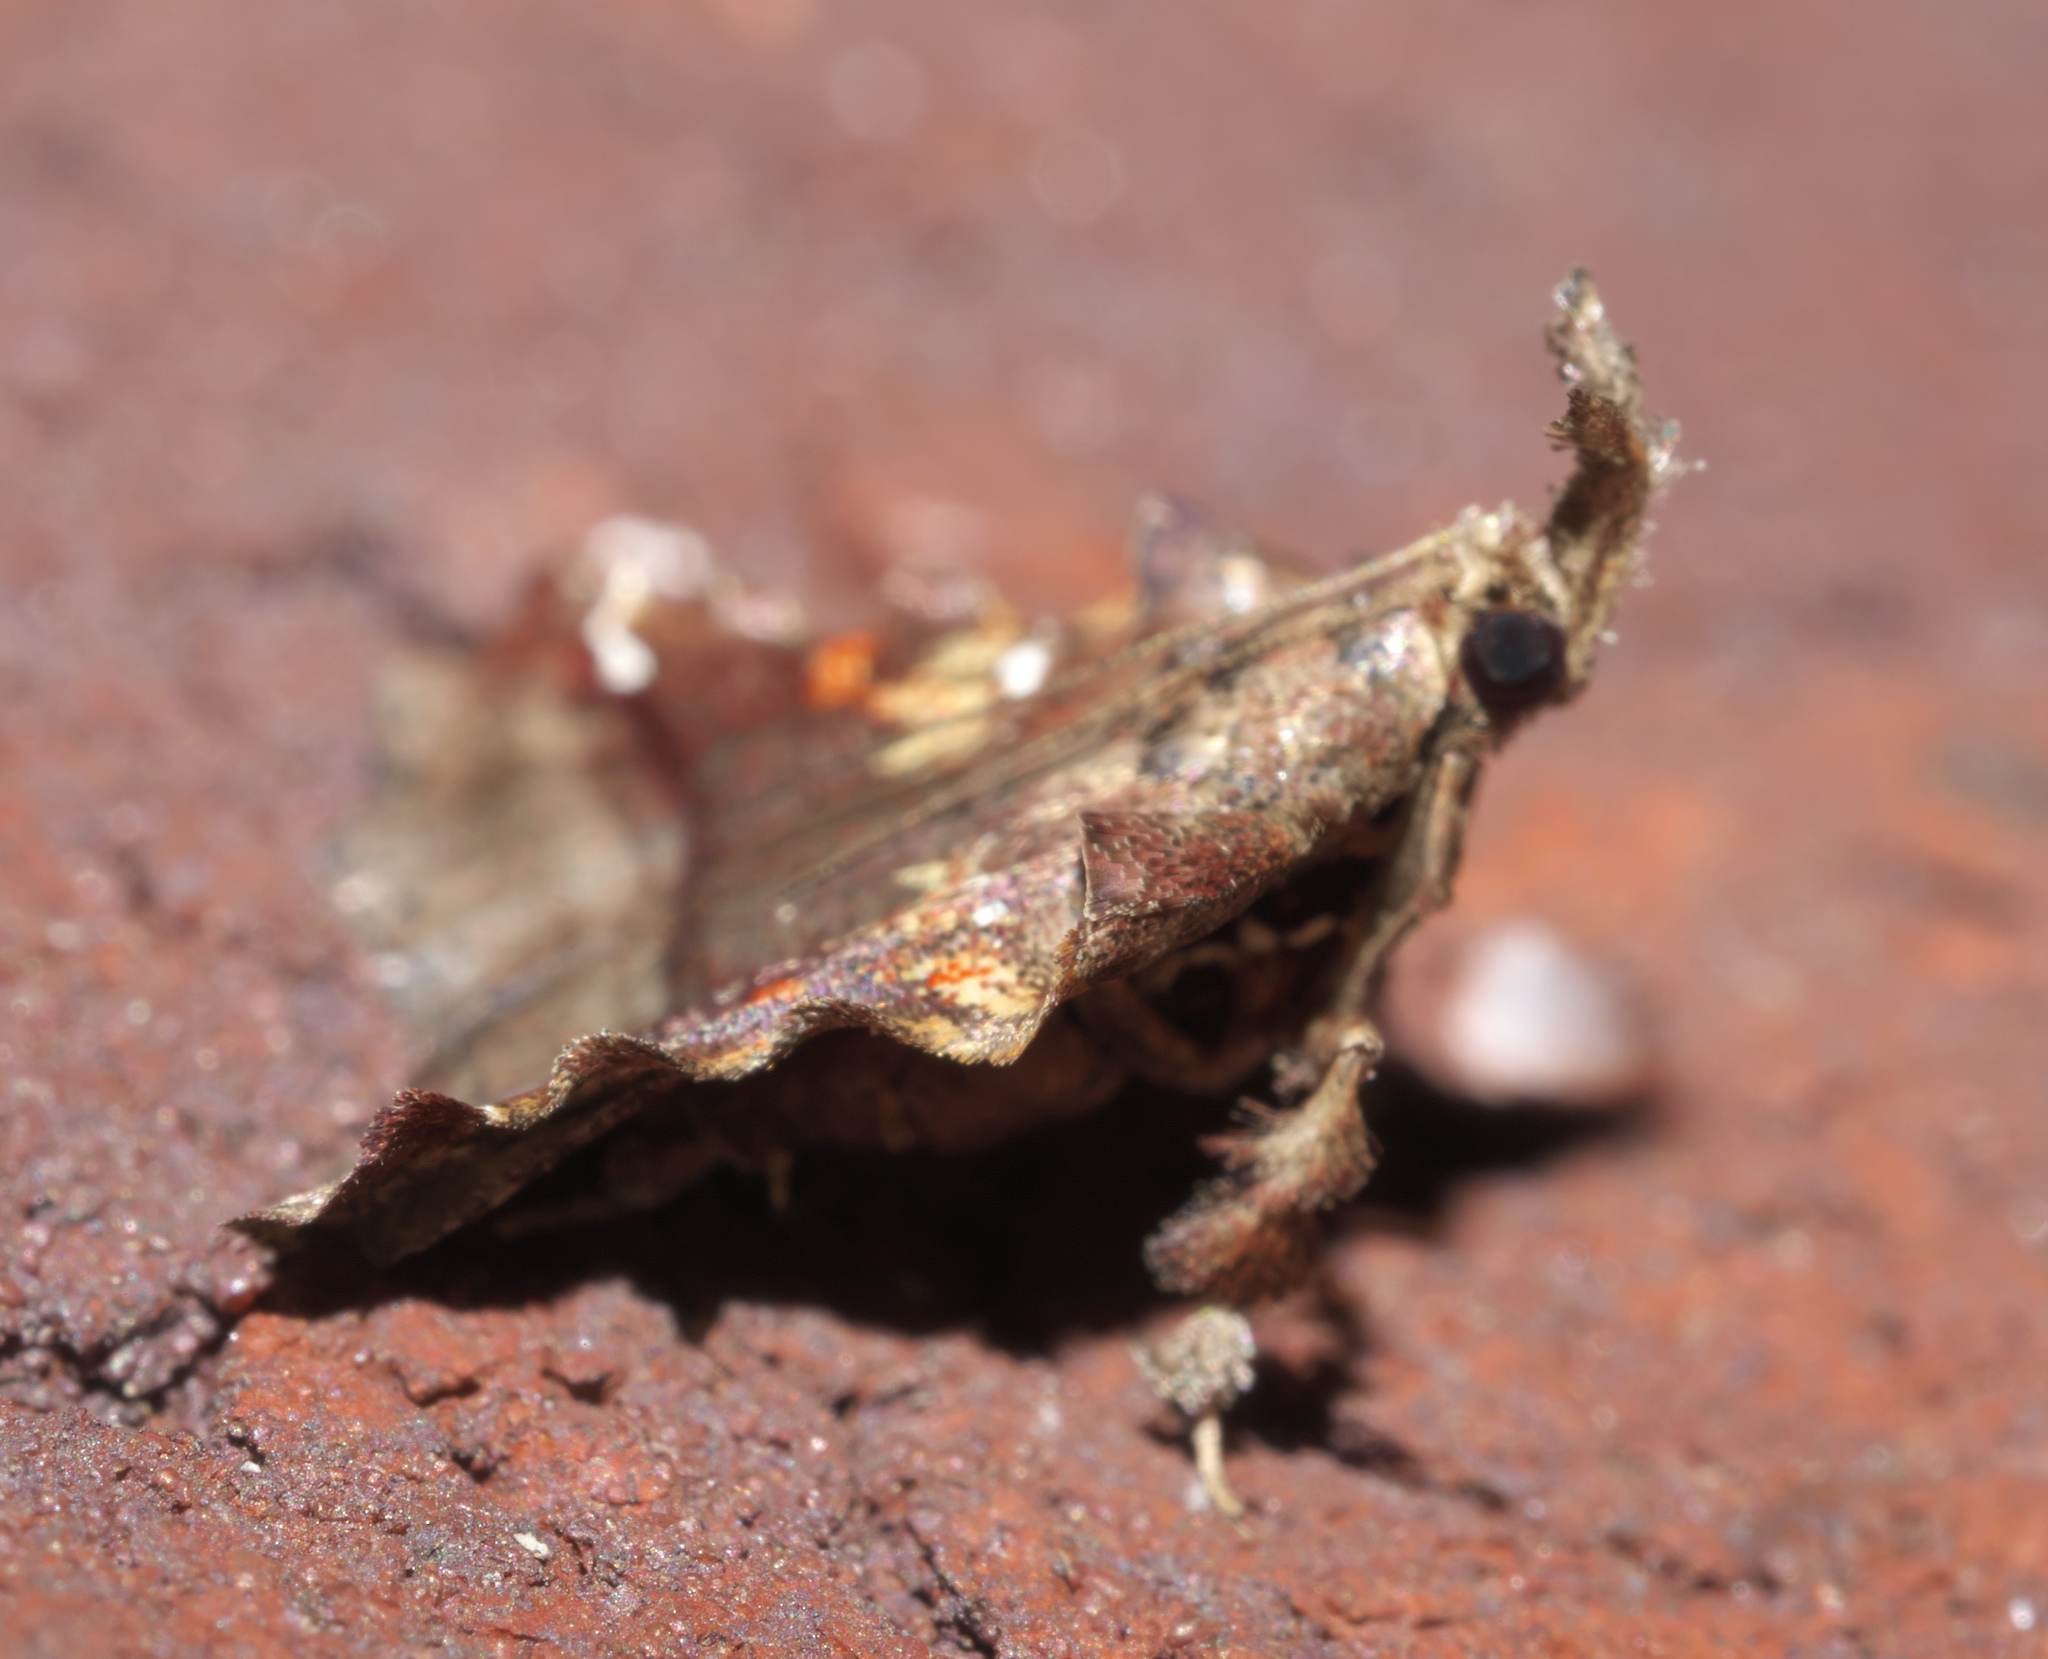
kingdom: Animalia
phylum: Arthropoda
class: Insecta
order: Lepidoptera
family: Pyralidae
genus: Clydonopteron
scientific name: Clydonopteron sacculana
